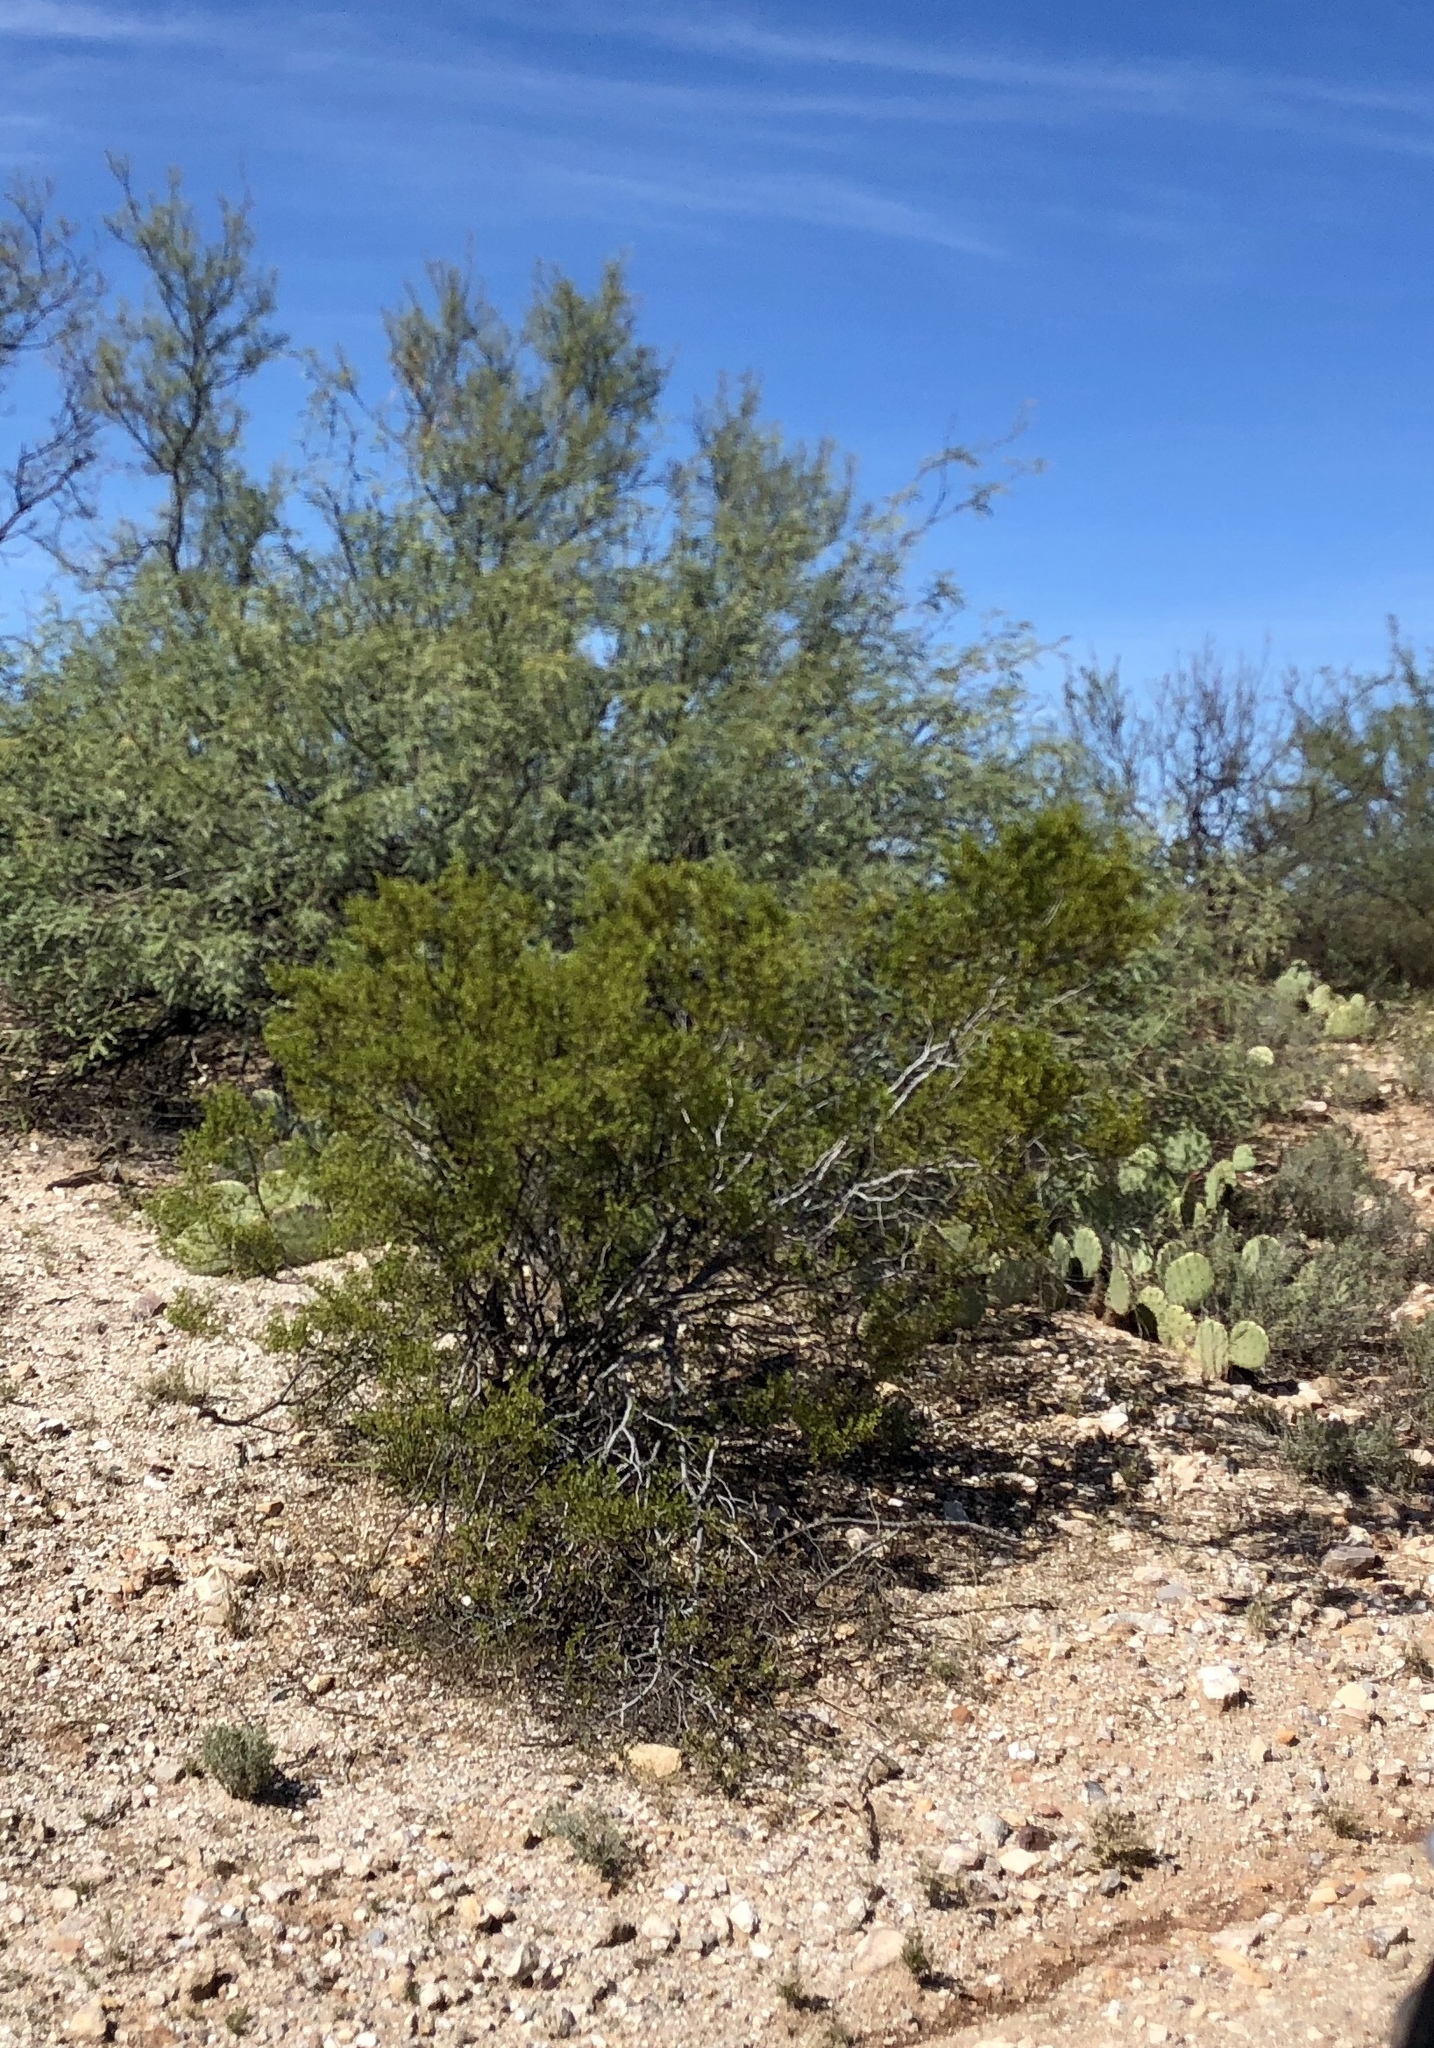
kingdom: Plantae
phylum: Tracheophyta
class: Magnoliopsida
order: Zygophyllales
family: Zygophyllaceae
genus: Larrea
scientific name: Larrea tridentata
